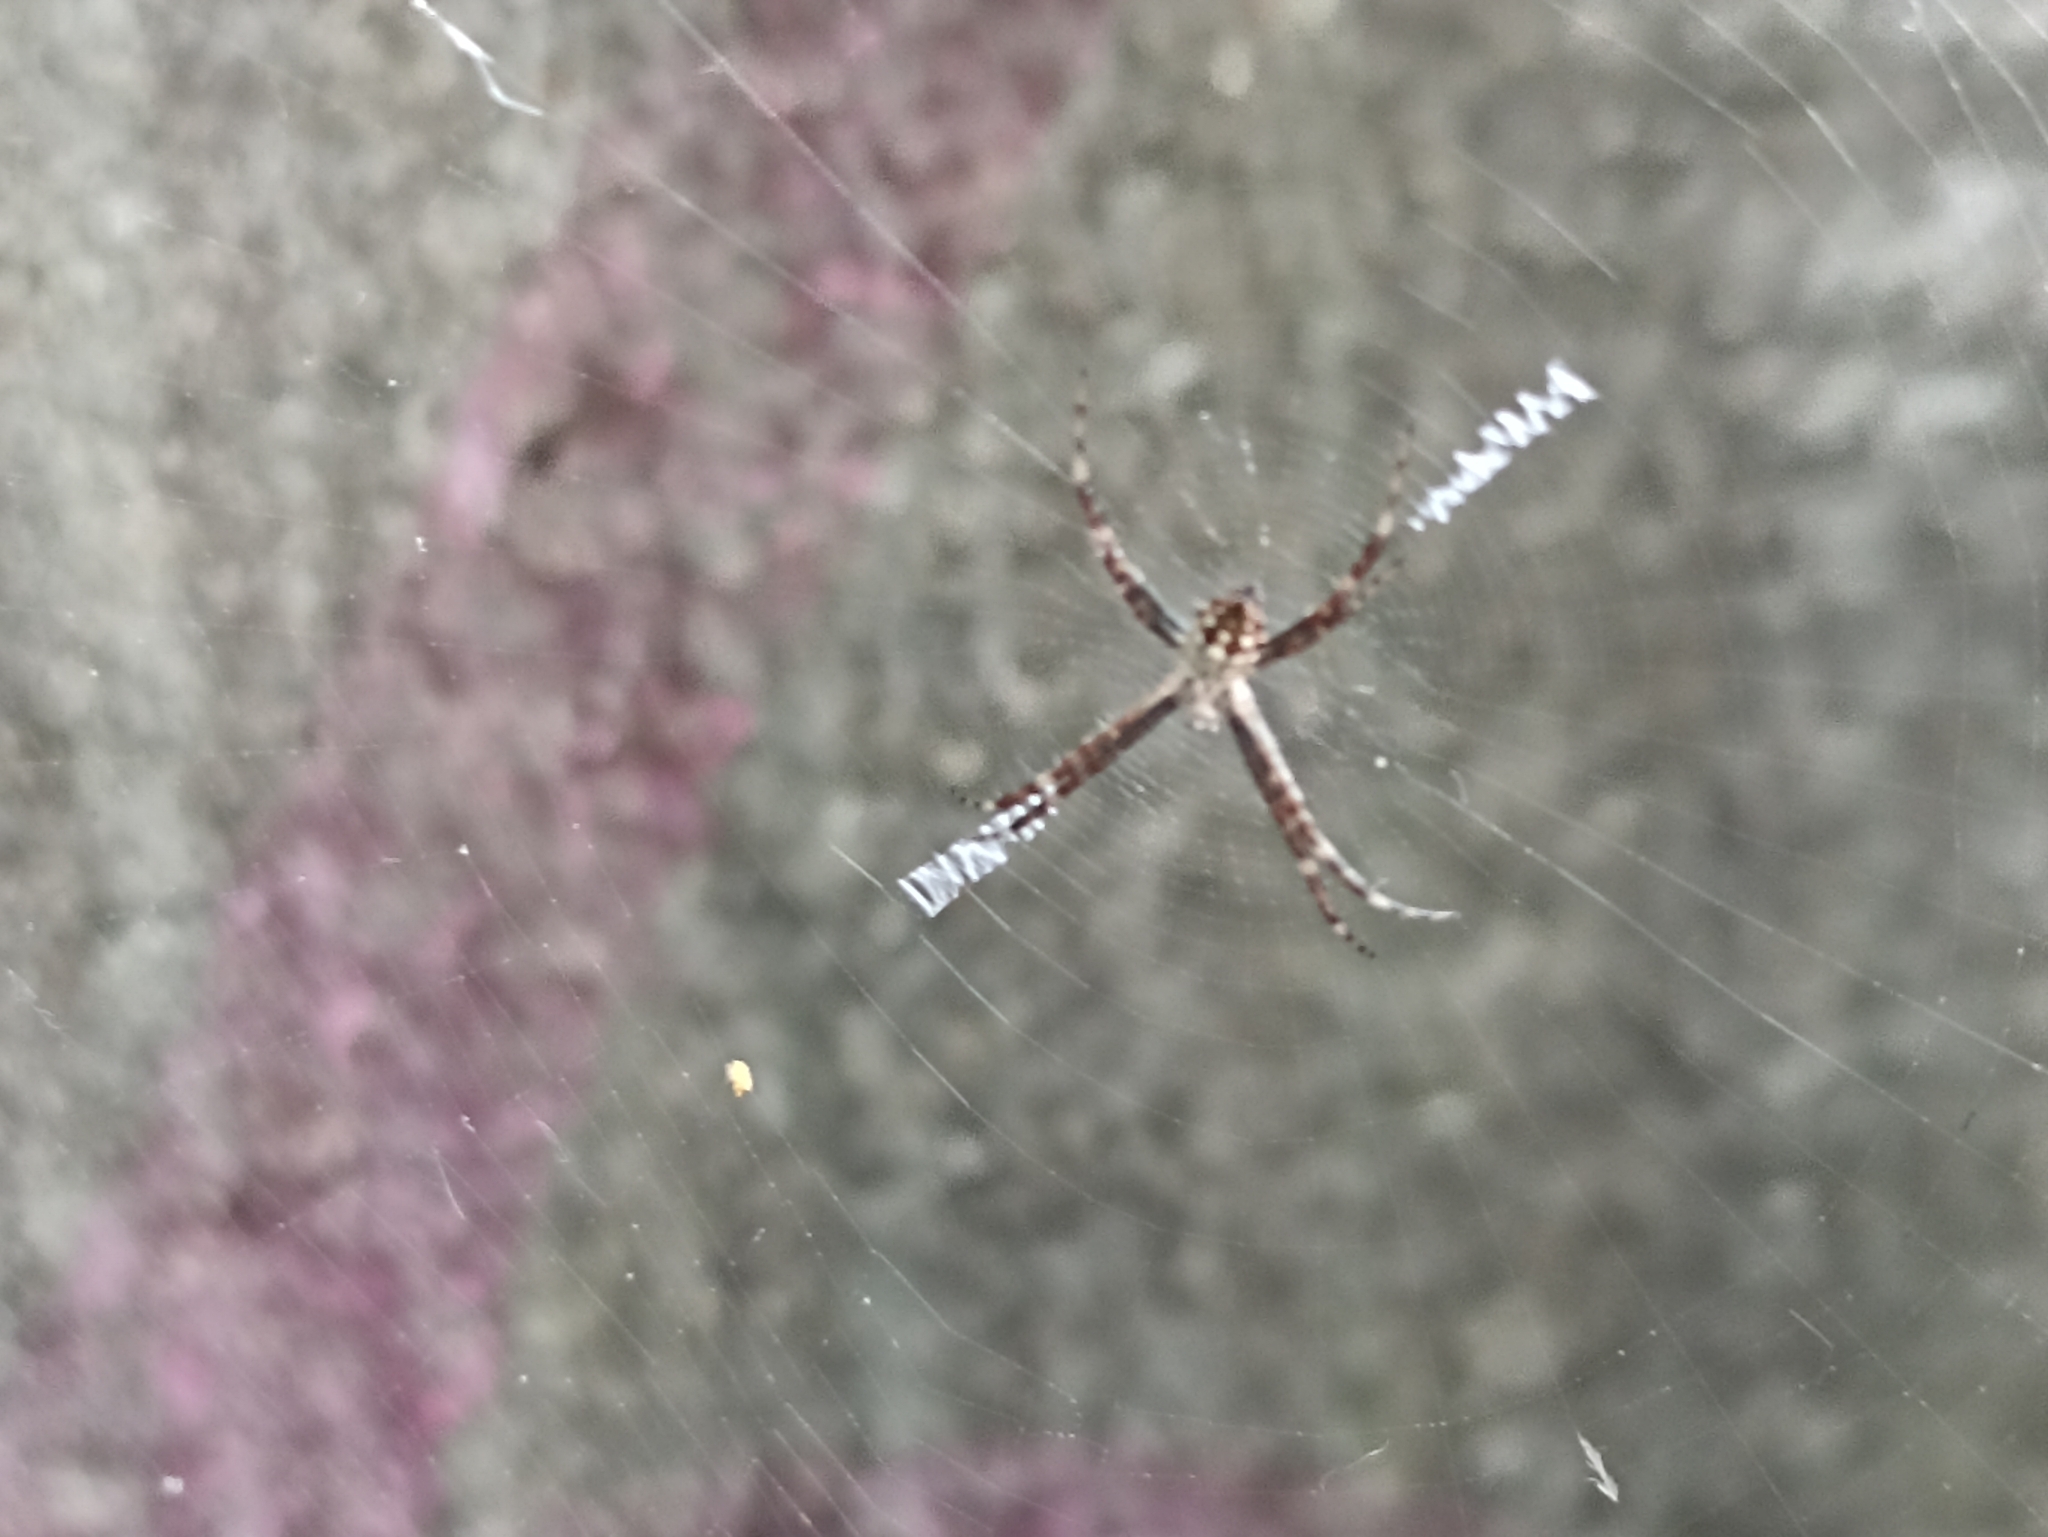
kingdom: Animalia
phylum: Arthropoda
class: Arachnida
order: Araneae
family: Araneidae
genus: Argiope
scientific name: Argiope argentata
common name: Orb weavers
